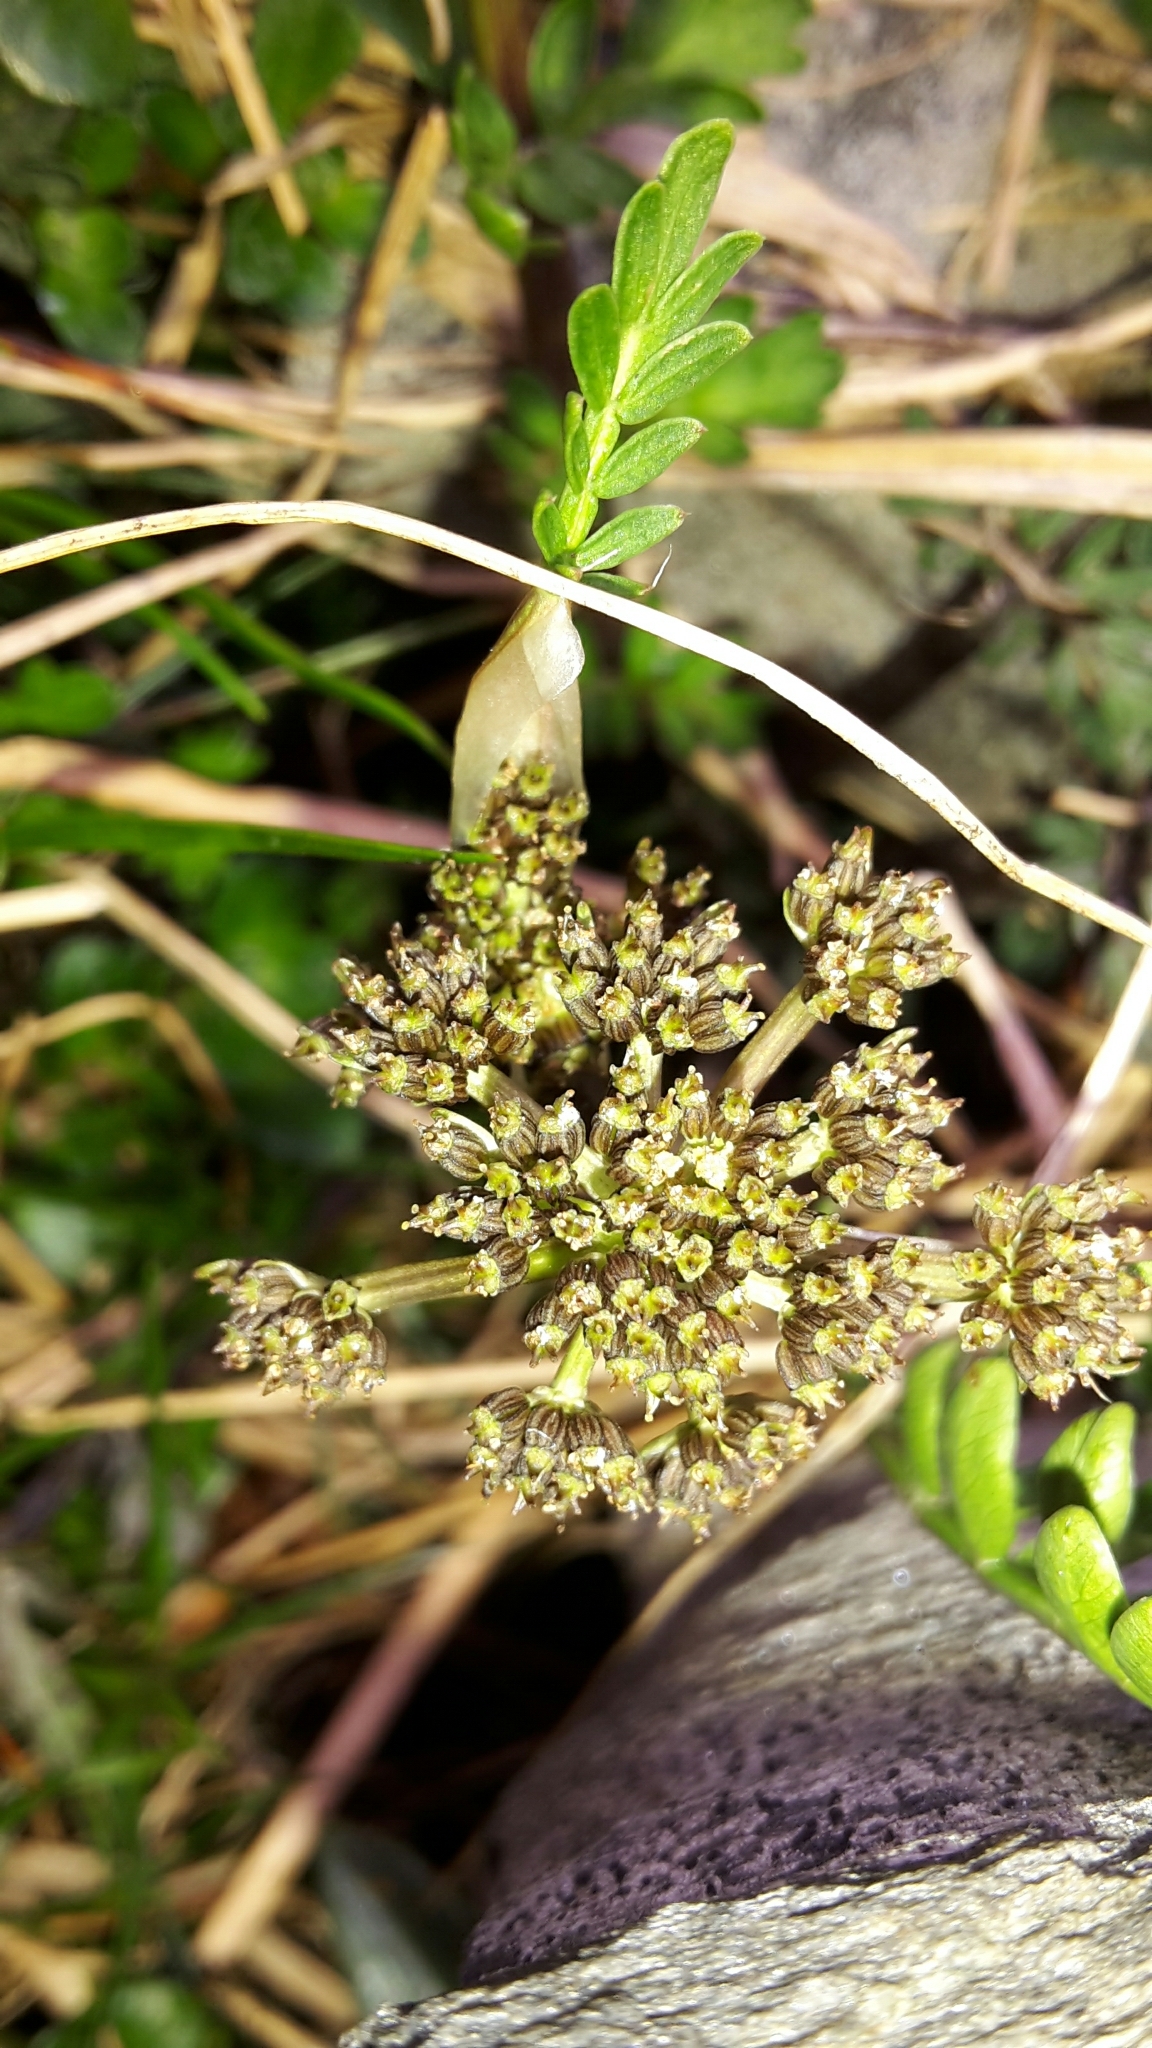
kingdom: Plantae
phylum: Tracheophyta
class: Magnoliopsida
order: Apiales
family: Apiaceae
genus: Anisotome
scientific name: Anisotome flexuosa
